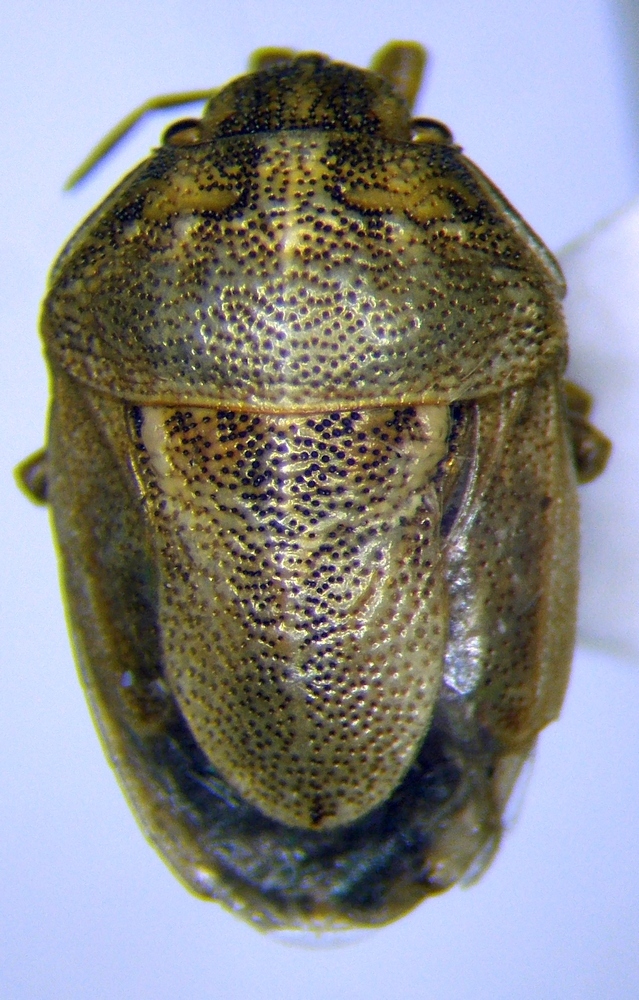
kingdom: Animalia
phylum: Arthropoda
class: Insecta
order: Hemiptera
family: Pentatomidae
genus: Neottiglossa
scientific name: Neottiglossa leporina
